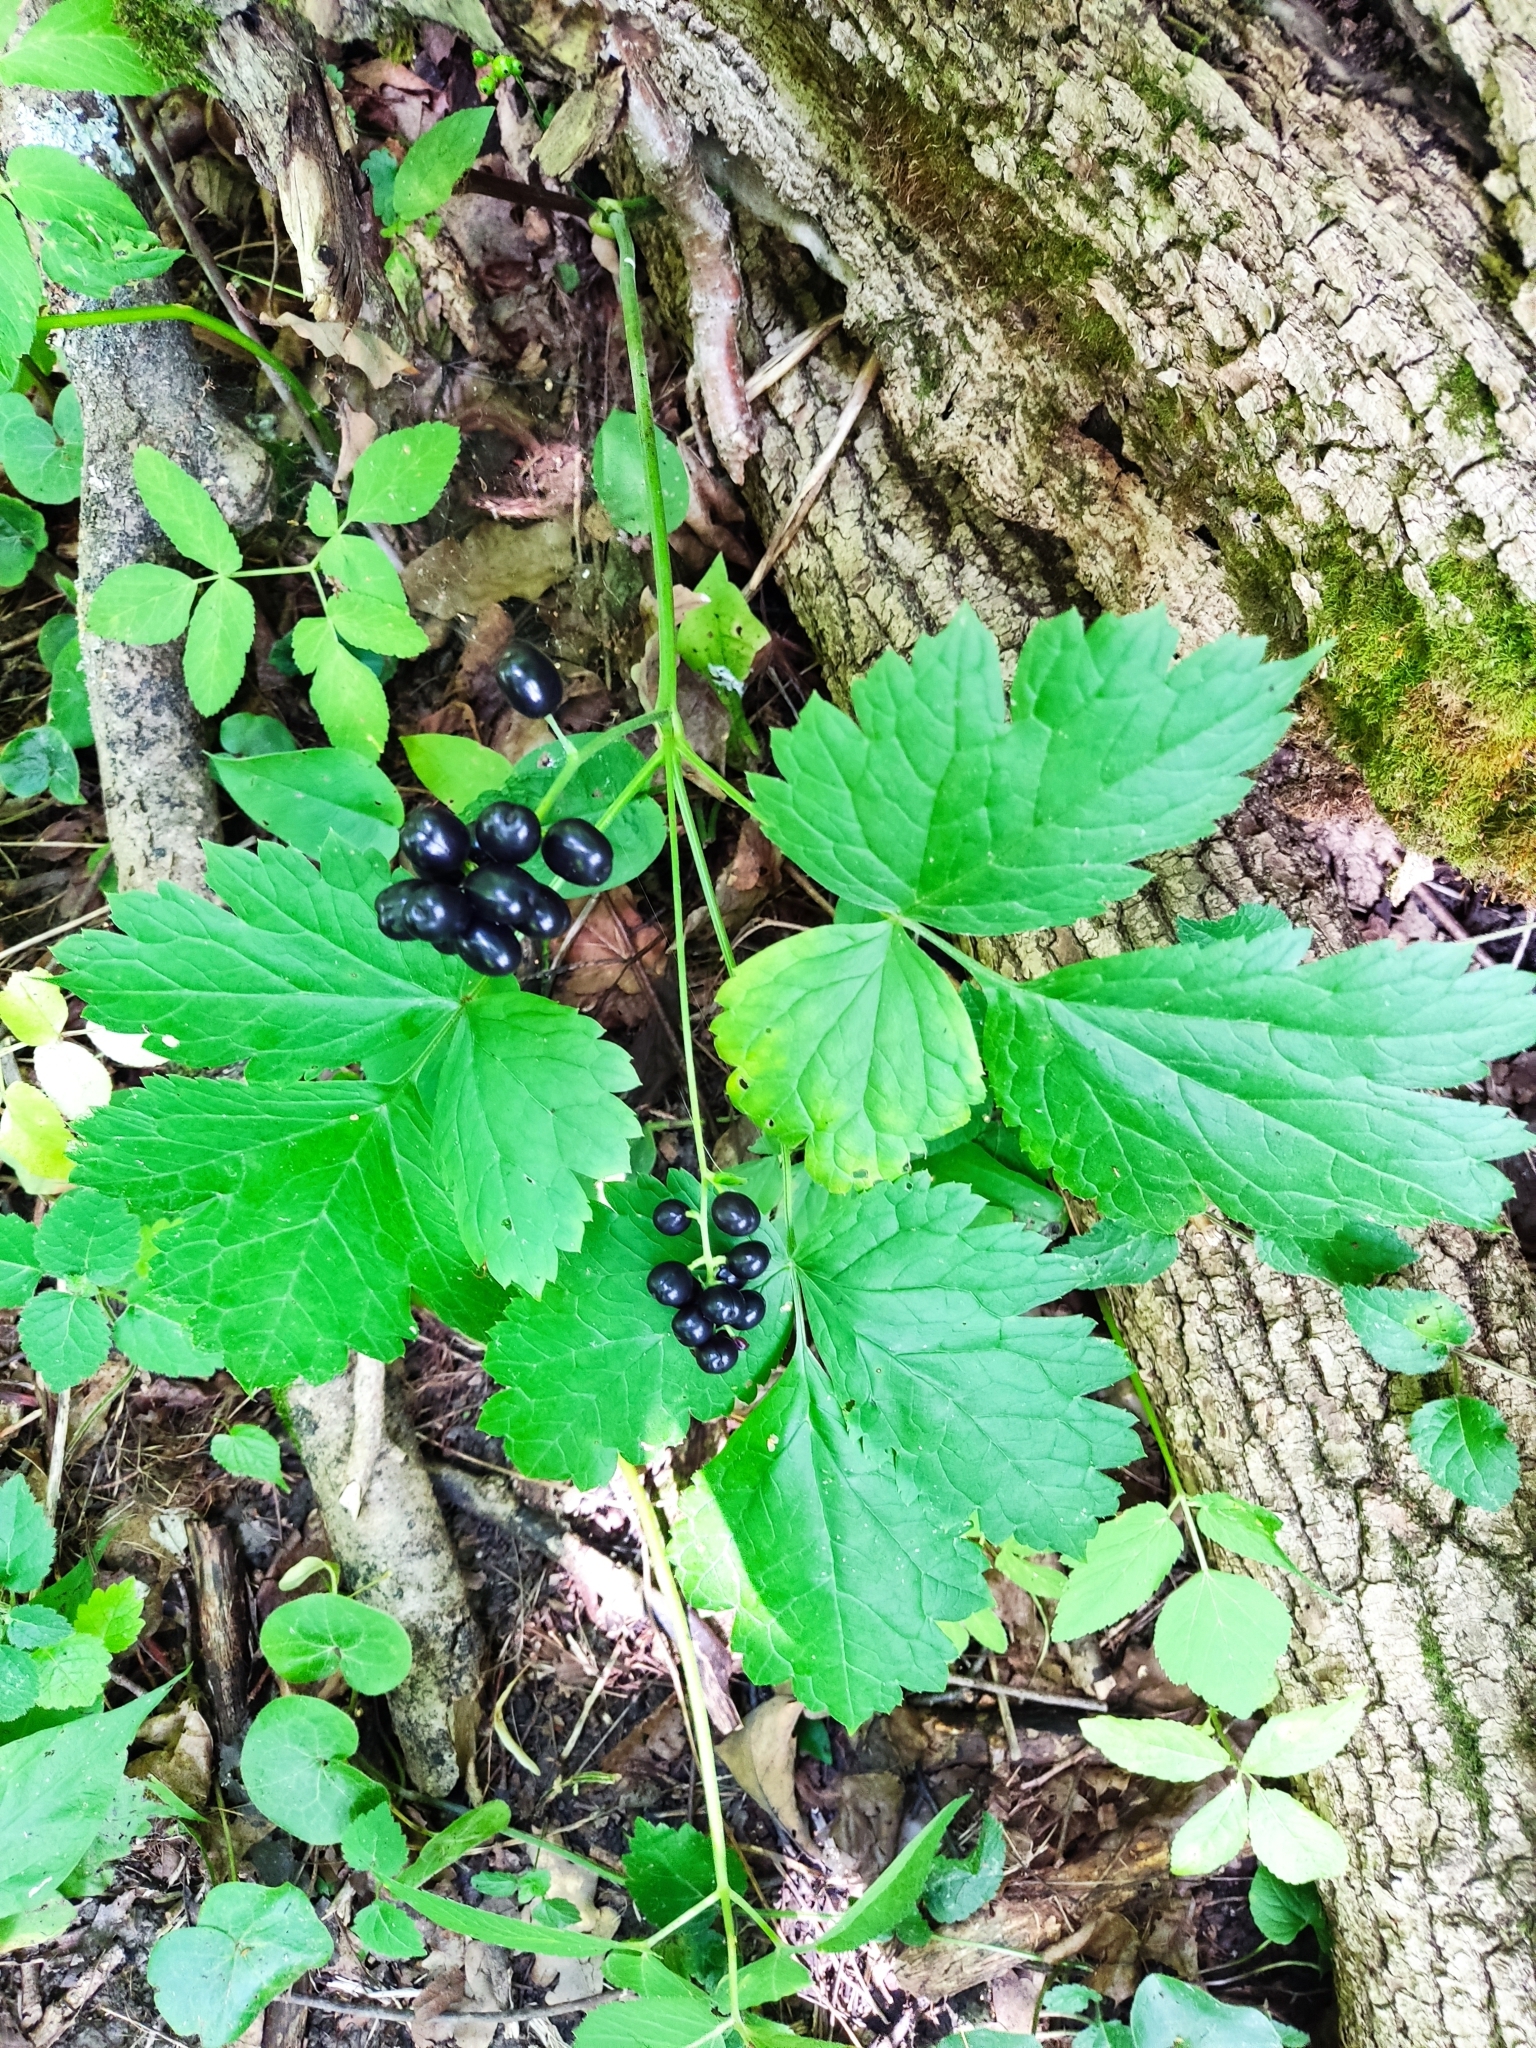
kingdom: Plantae
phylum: Tracheophyta
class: Magnoliopsida
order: Ranunculales
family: Ranunculaceae
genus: Actaea
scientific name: Actaea spicata
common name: Baneberry
